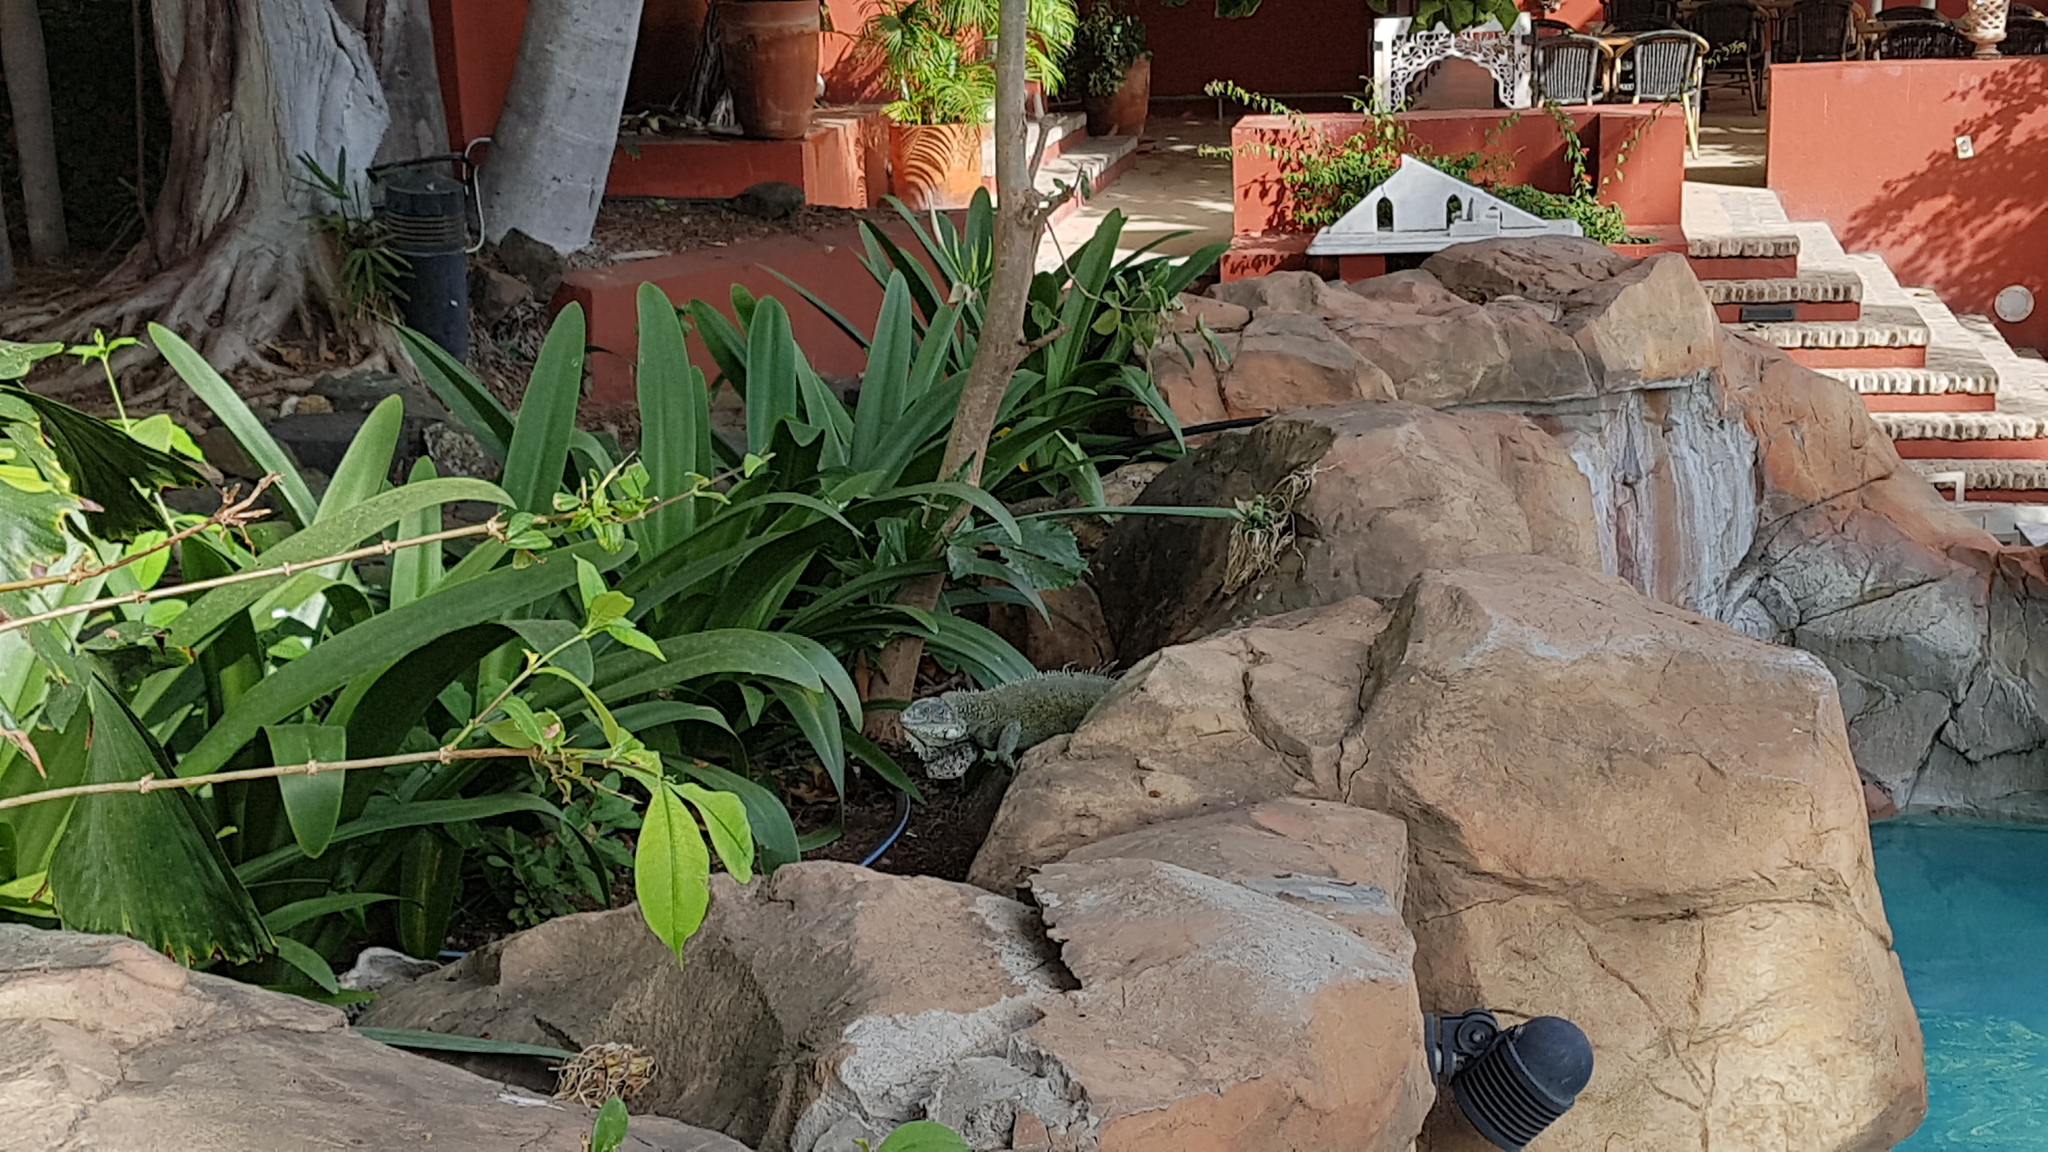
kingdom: Animalia
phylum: Chordata
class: Squamata
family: Iguanidae
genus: Iguana
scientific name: Iguana iguana
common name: Green iguana
